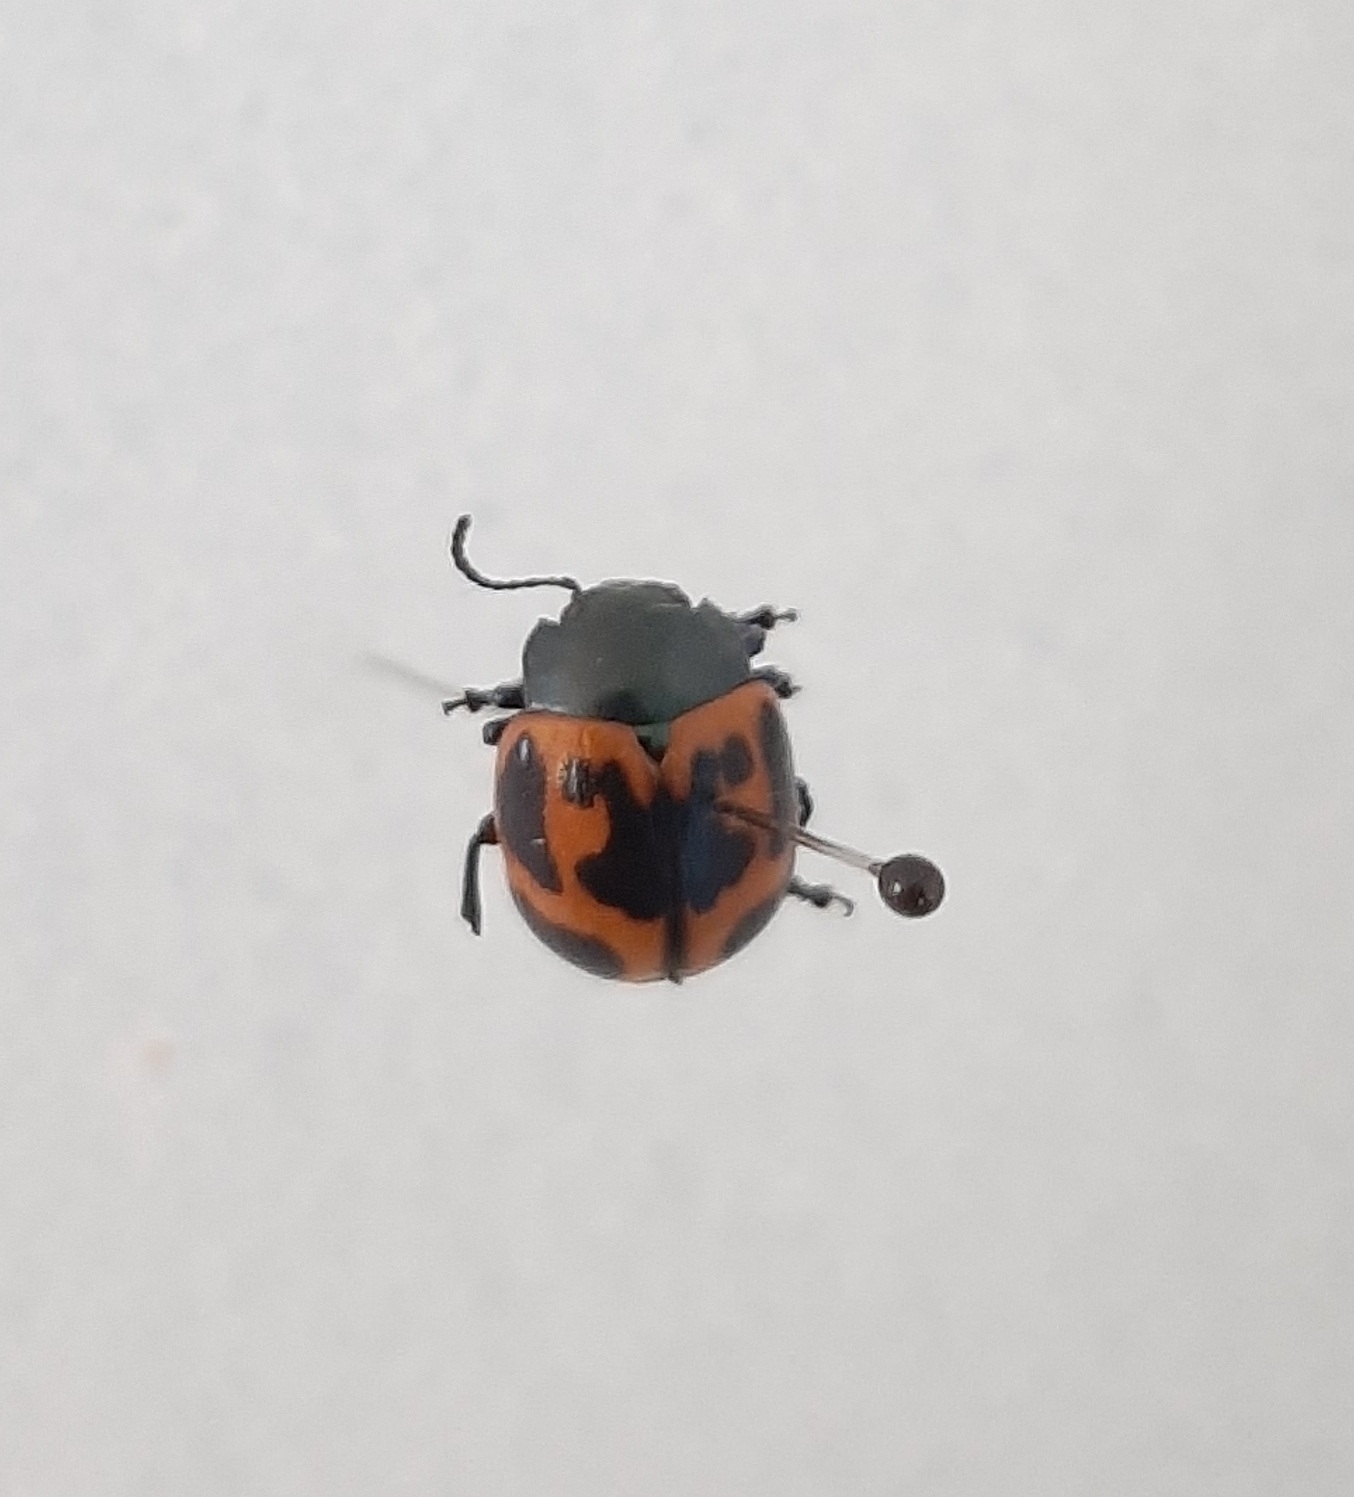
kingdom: Animalia
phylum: Arthropoda
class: Insecta
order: Coleoptera
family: Chrysomelidae
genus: Labidomera
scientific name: Labidomera clivicollis
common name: Swamp milkweed leaf beetle
